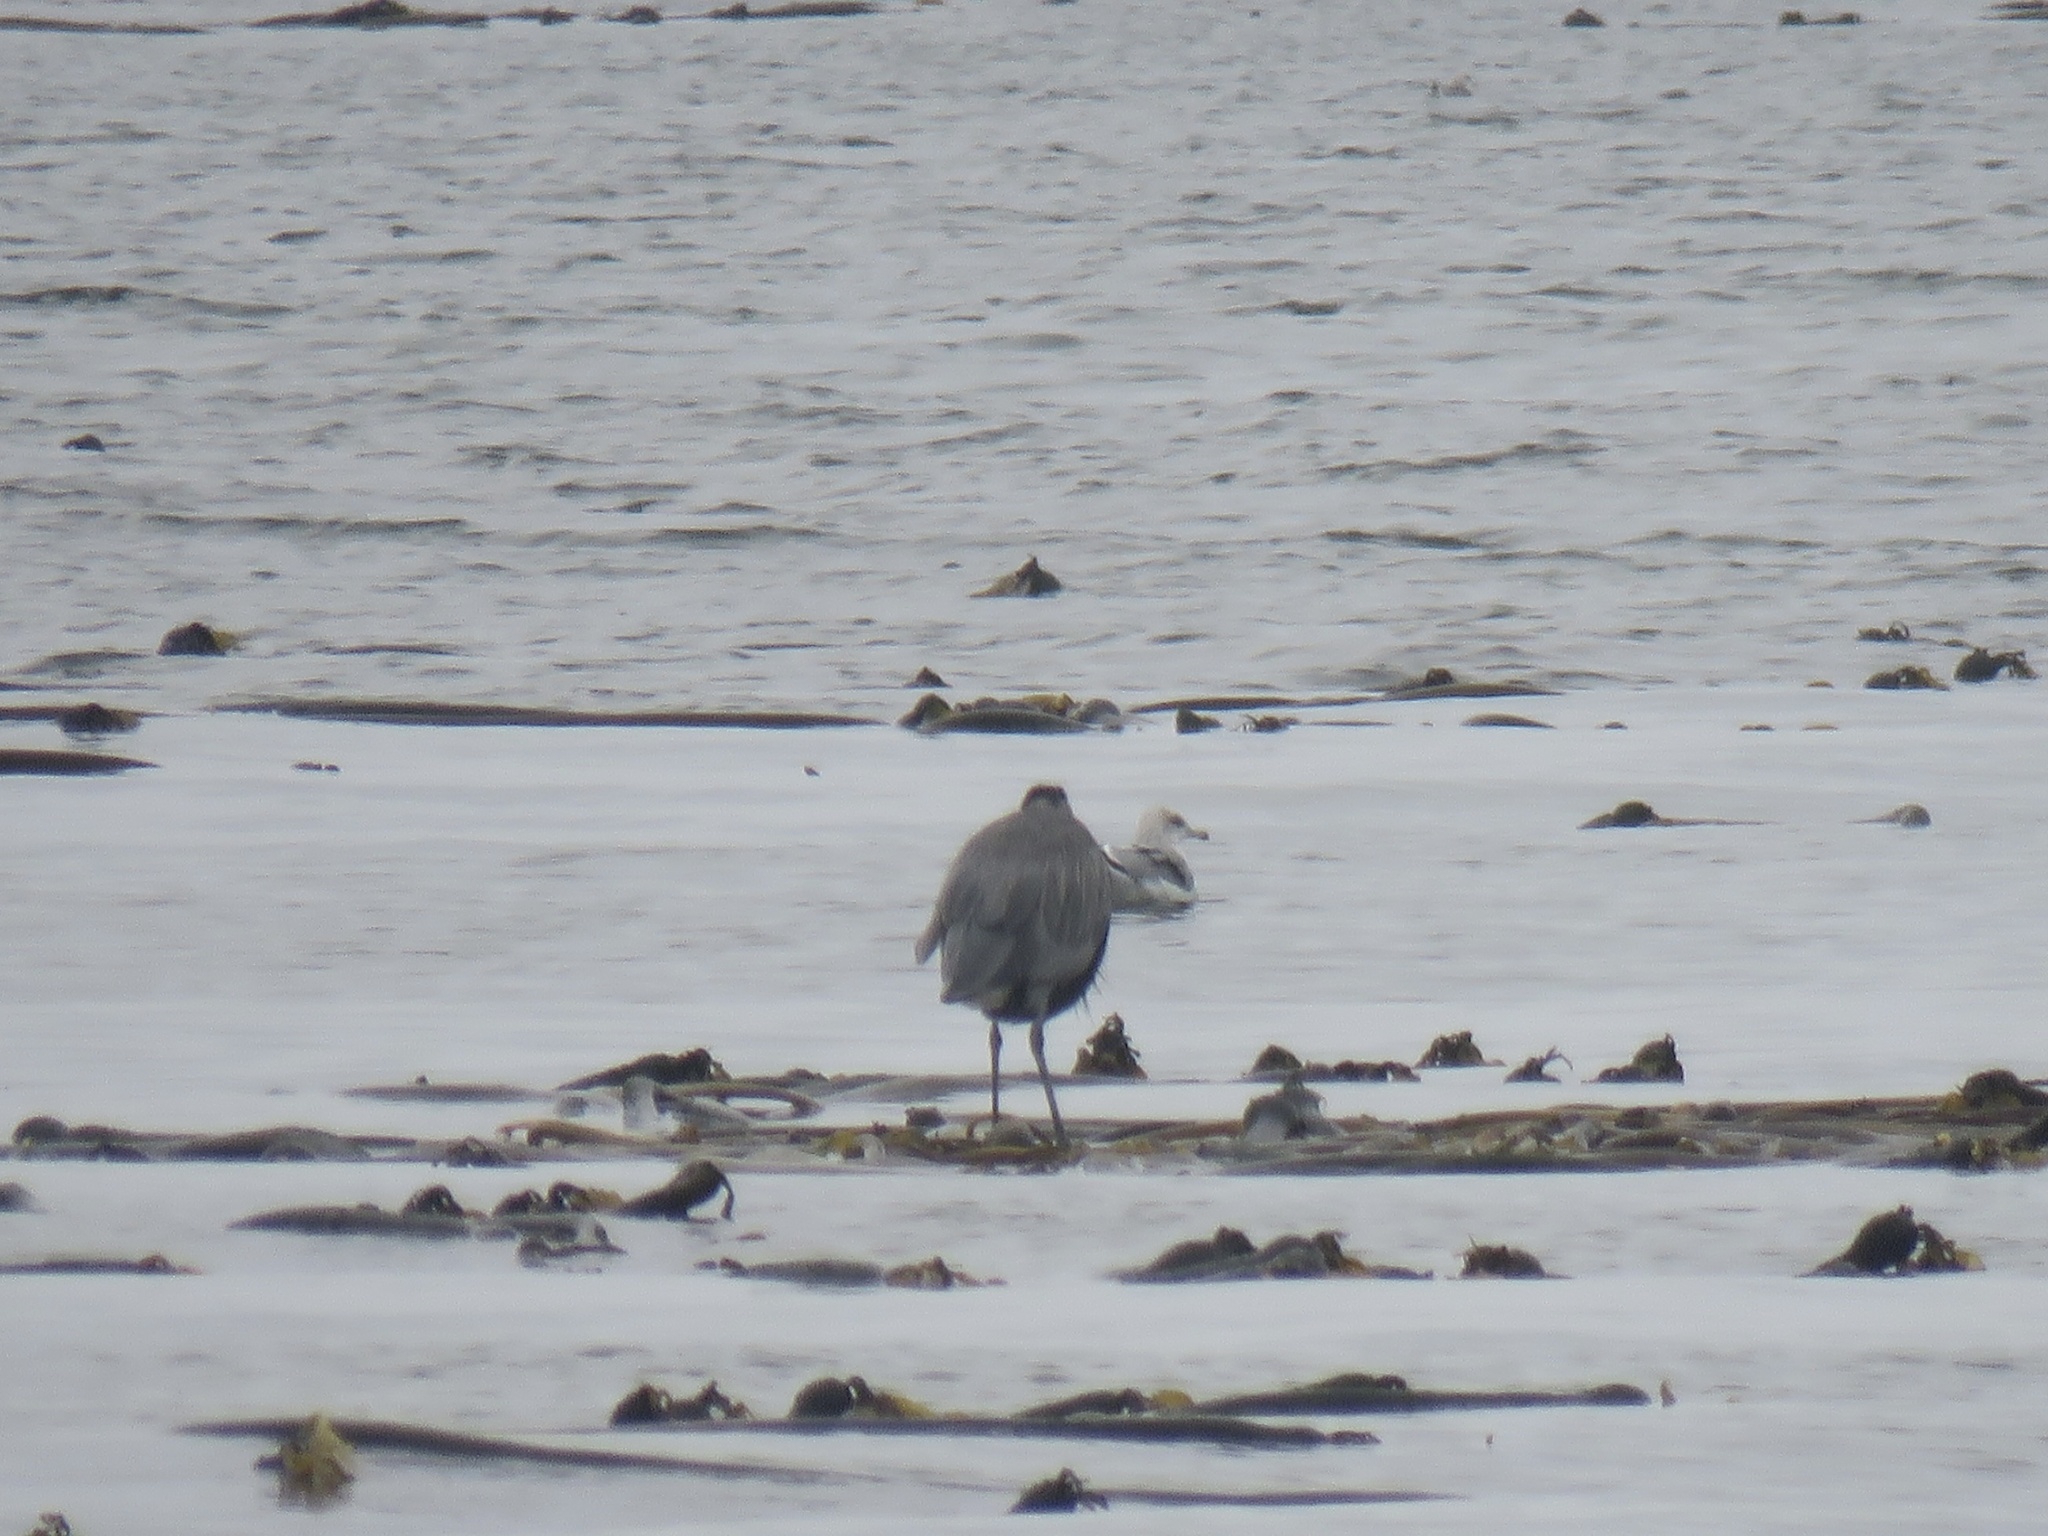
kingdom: Animalia
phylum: Chordata
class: Aves
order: Pelecaniformes
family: Ardeidae
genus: Ardea
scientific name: Ardea herodias
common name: Great blue heron
